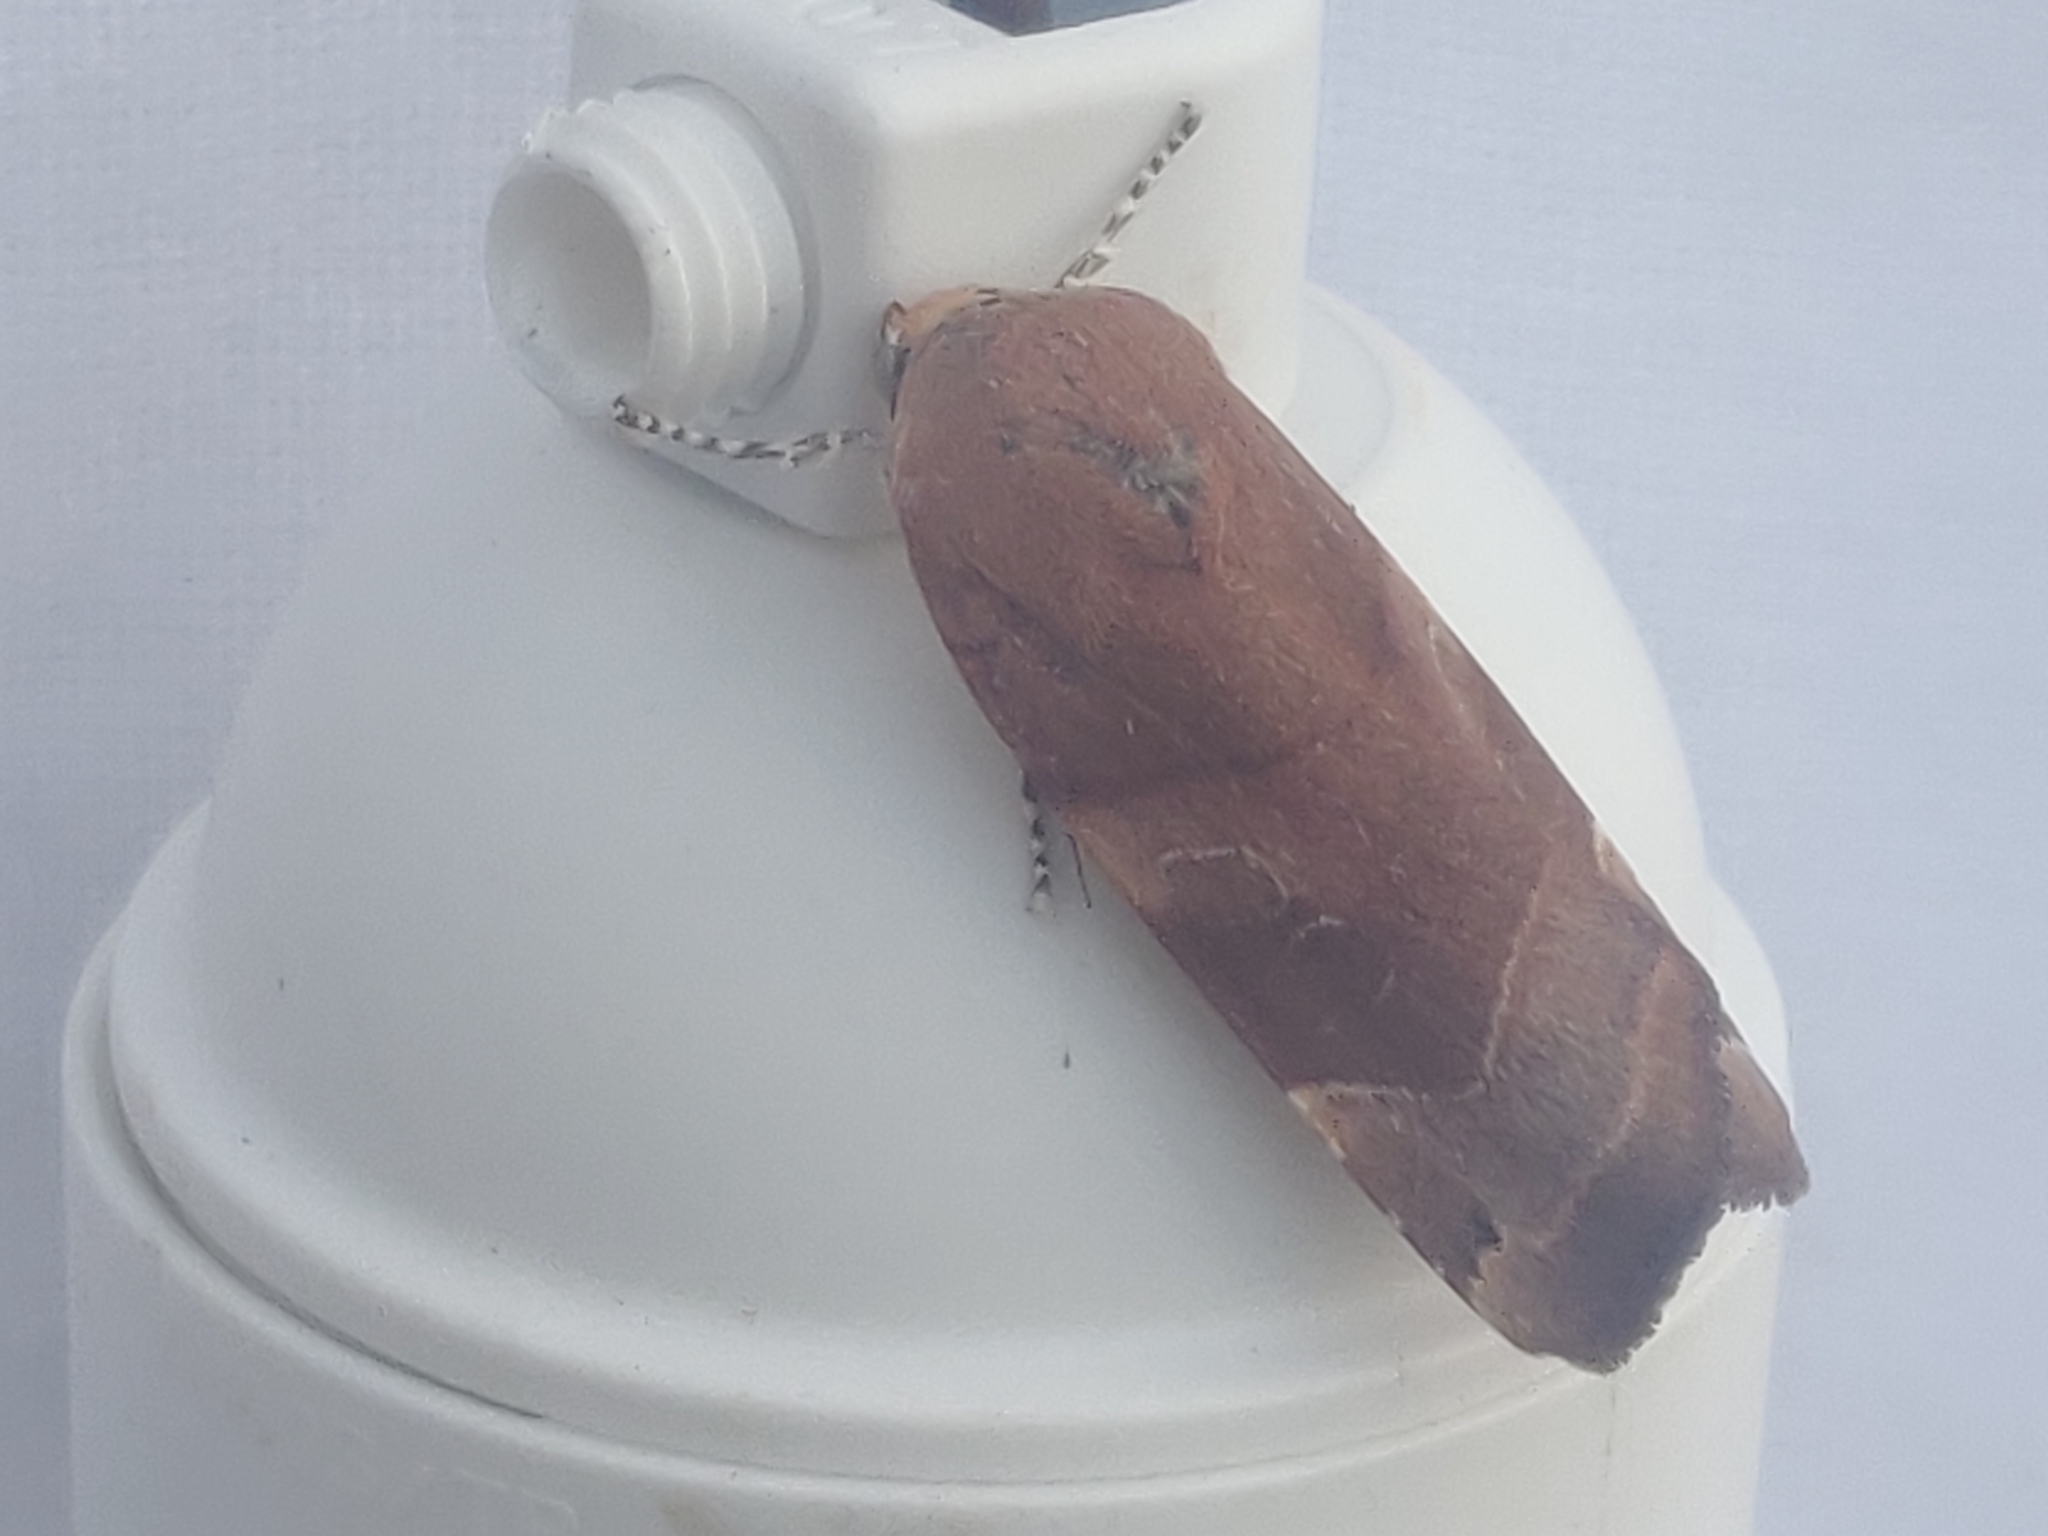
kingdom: Animalia
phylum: Arthropoda
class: Insecta
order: Lepidoptera
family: Noctuidae
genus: Noctua
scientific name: Noctua fimbriata
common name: Broad-bordered yellow underwing
